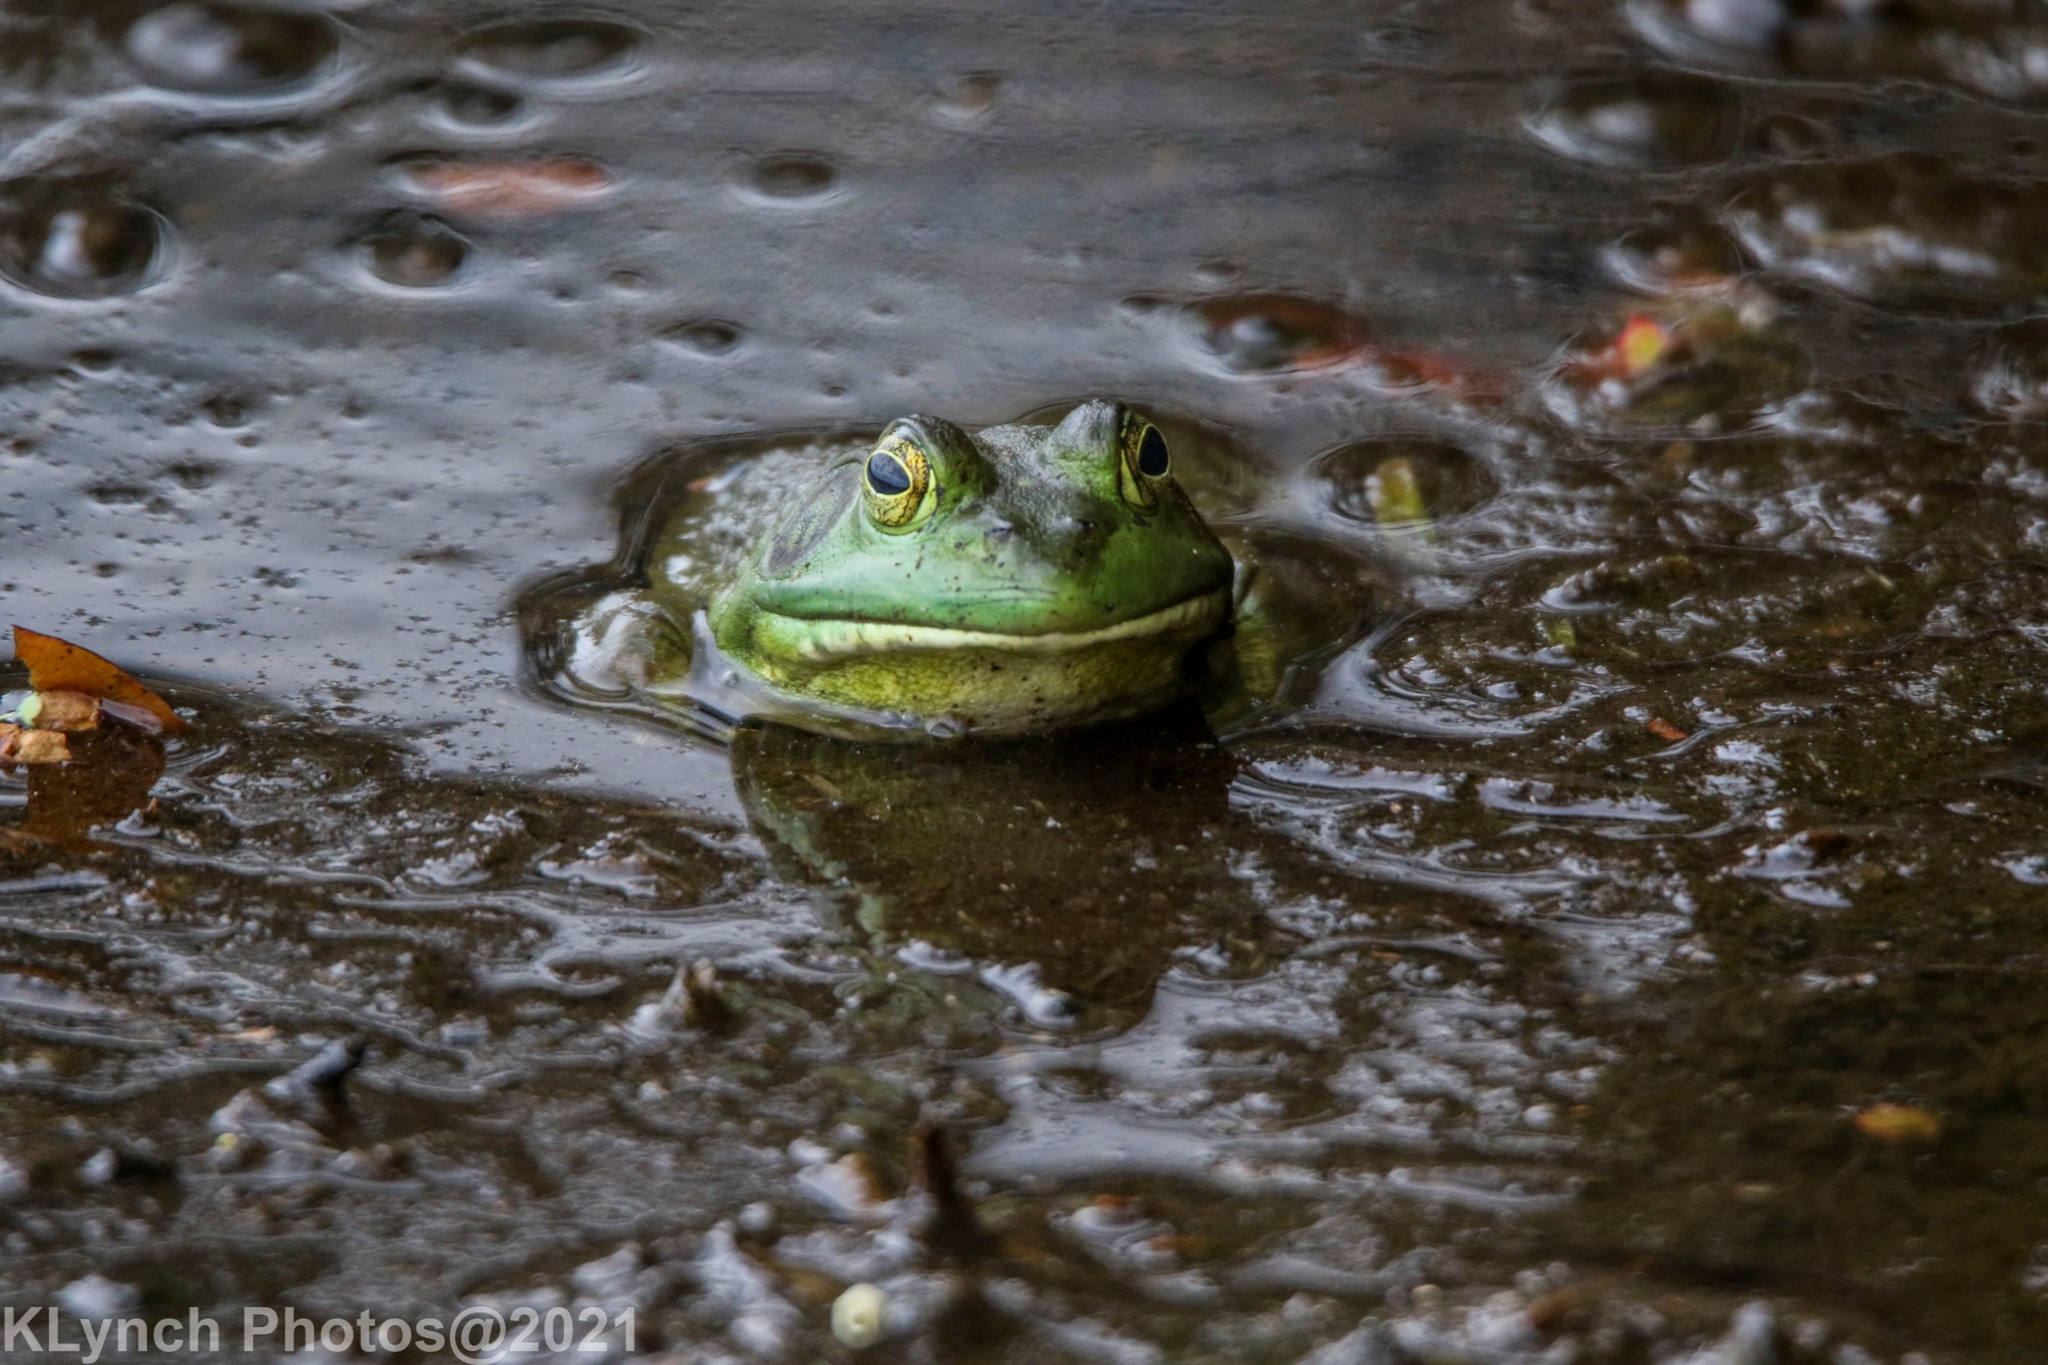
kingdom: Animalia
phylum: Chordata
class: Amphibia
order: Anura
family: Ranidae
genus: Lithobates
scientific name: Lithobates catesbeianus
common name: American bullfrog
